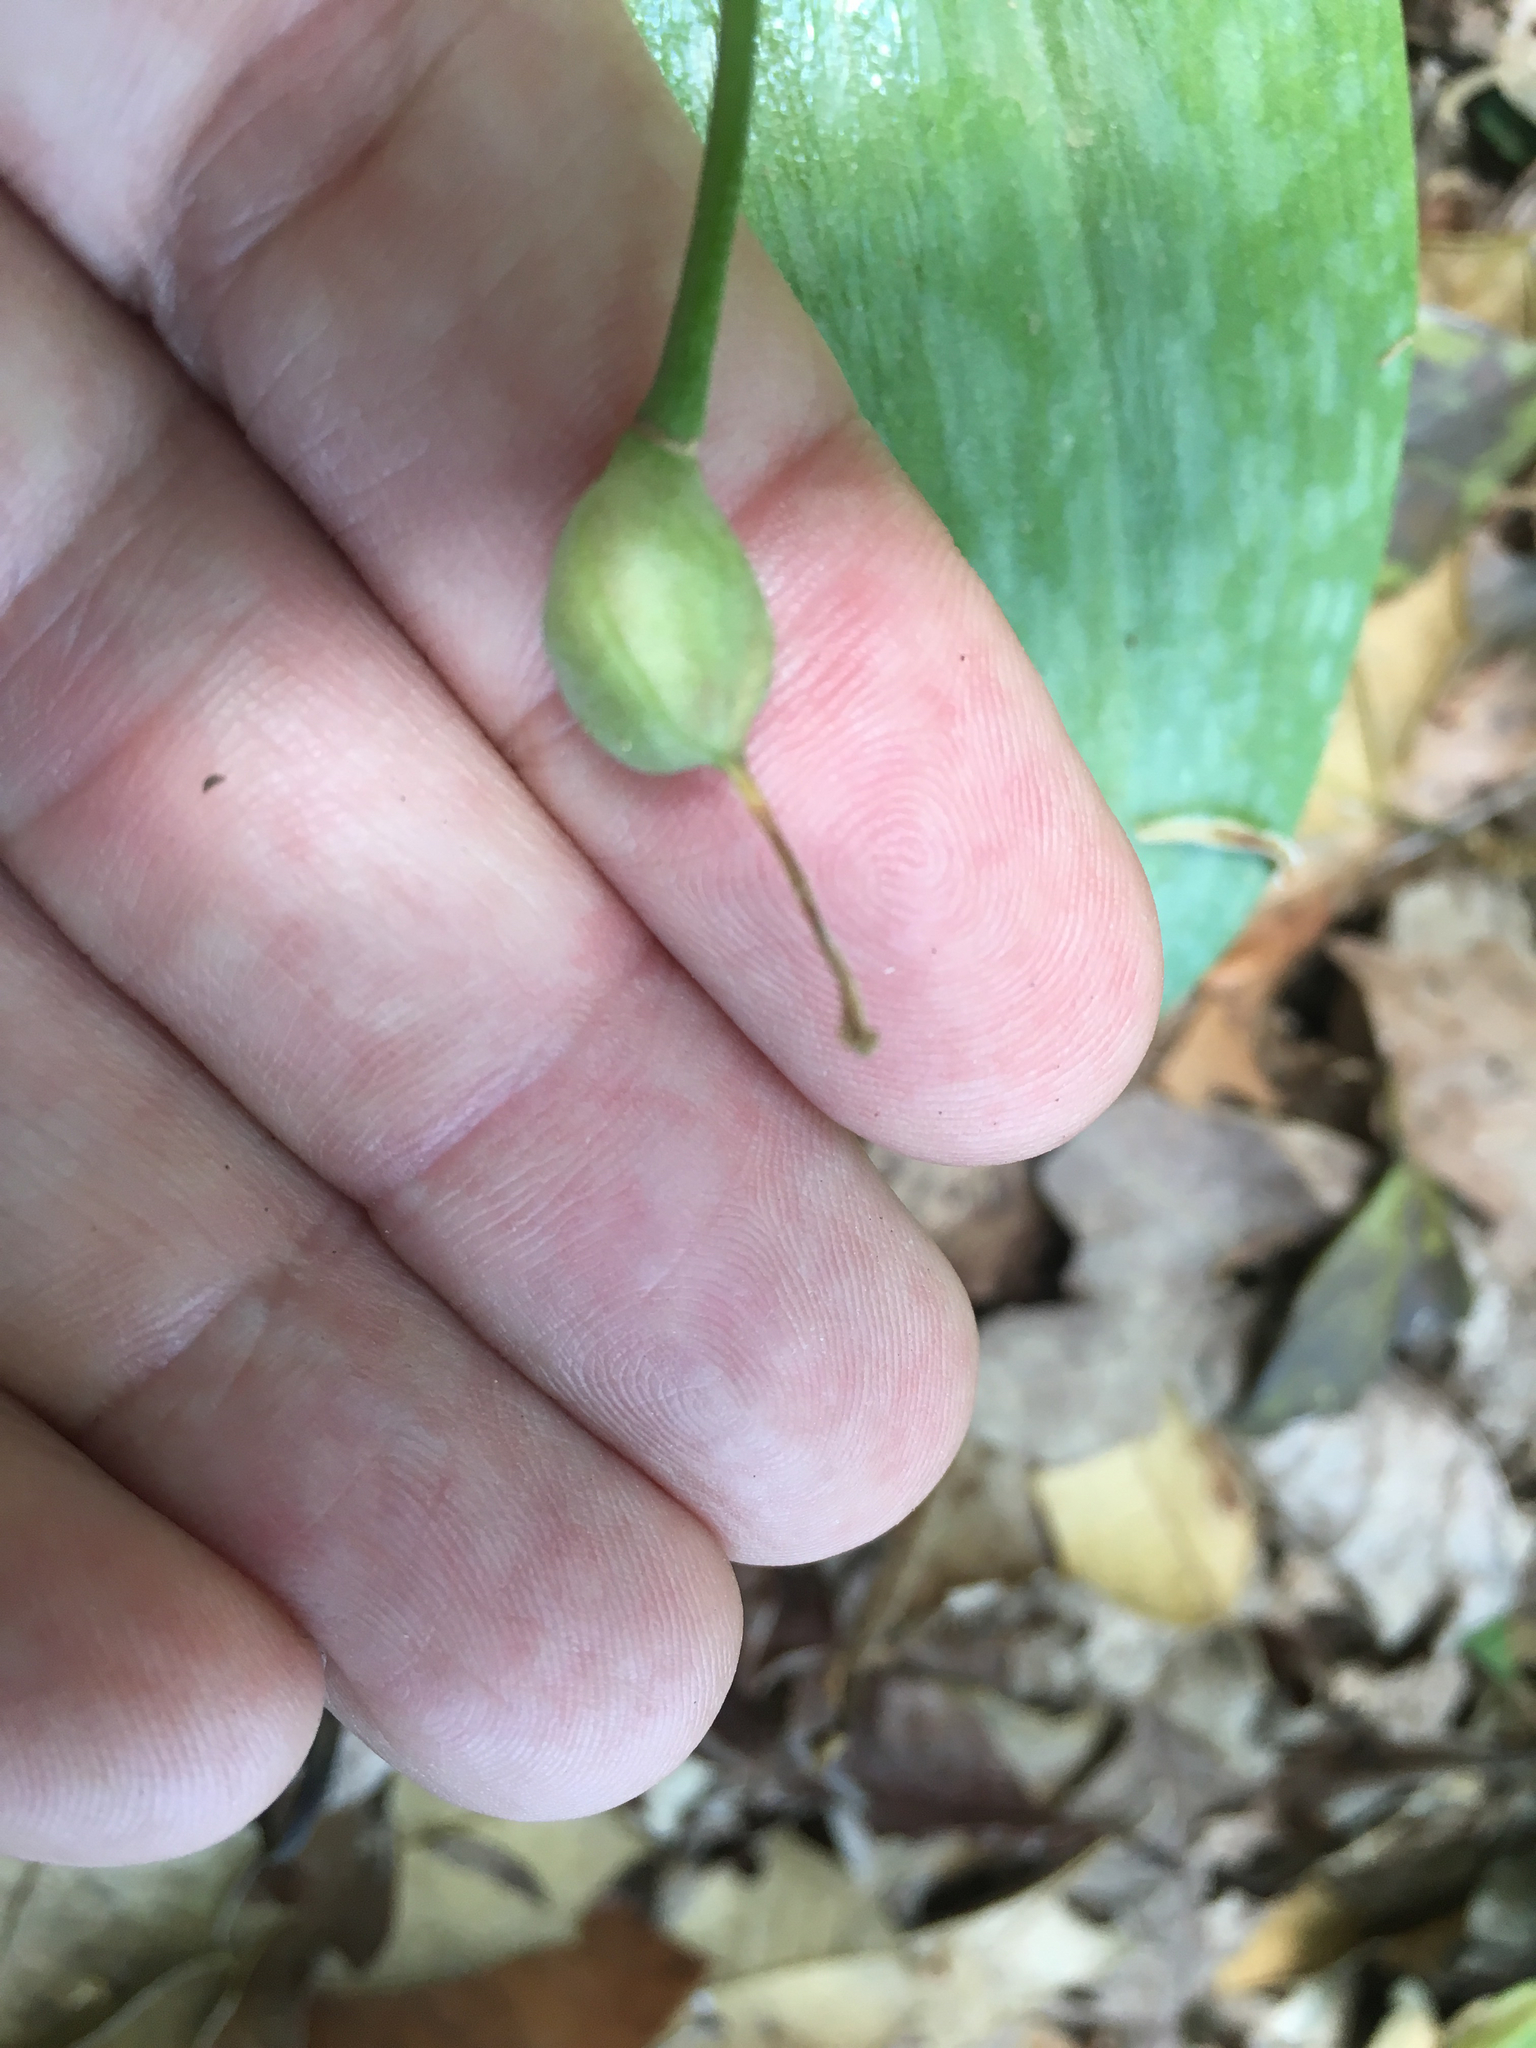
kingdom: Plantae
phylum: Tracheophyta
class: Liliopsida
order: Liliales
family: Liliaceae
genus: Erythronium
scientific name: Erythronium americanum
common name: Yellow adder's-tongue
